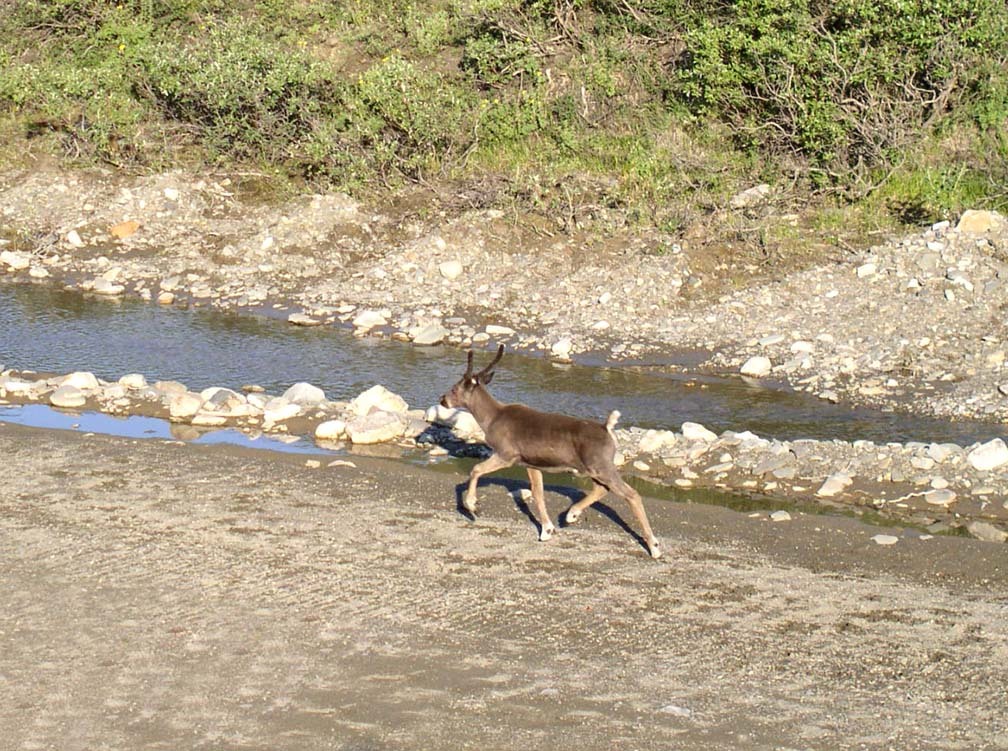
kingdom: Animalia
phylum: Chordata
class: Mammalia
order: Artiodactyla
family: Cervidae
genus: Rangifer
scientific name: Rangifer tarandus
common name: Reindeer
